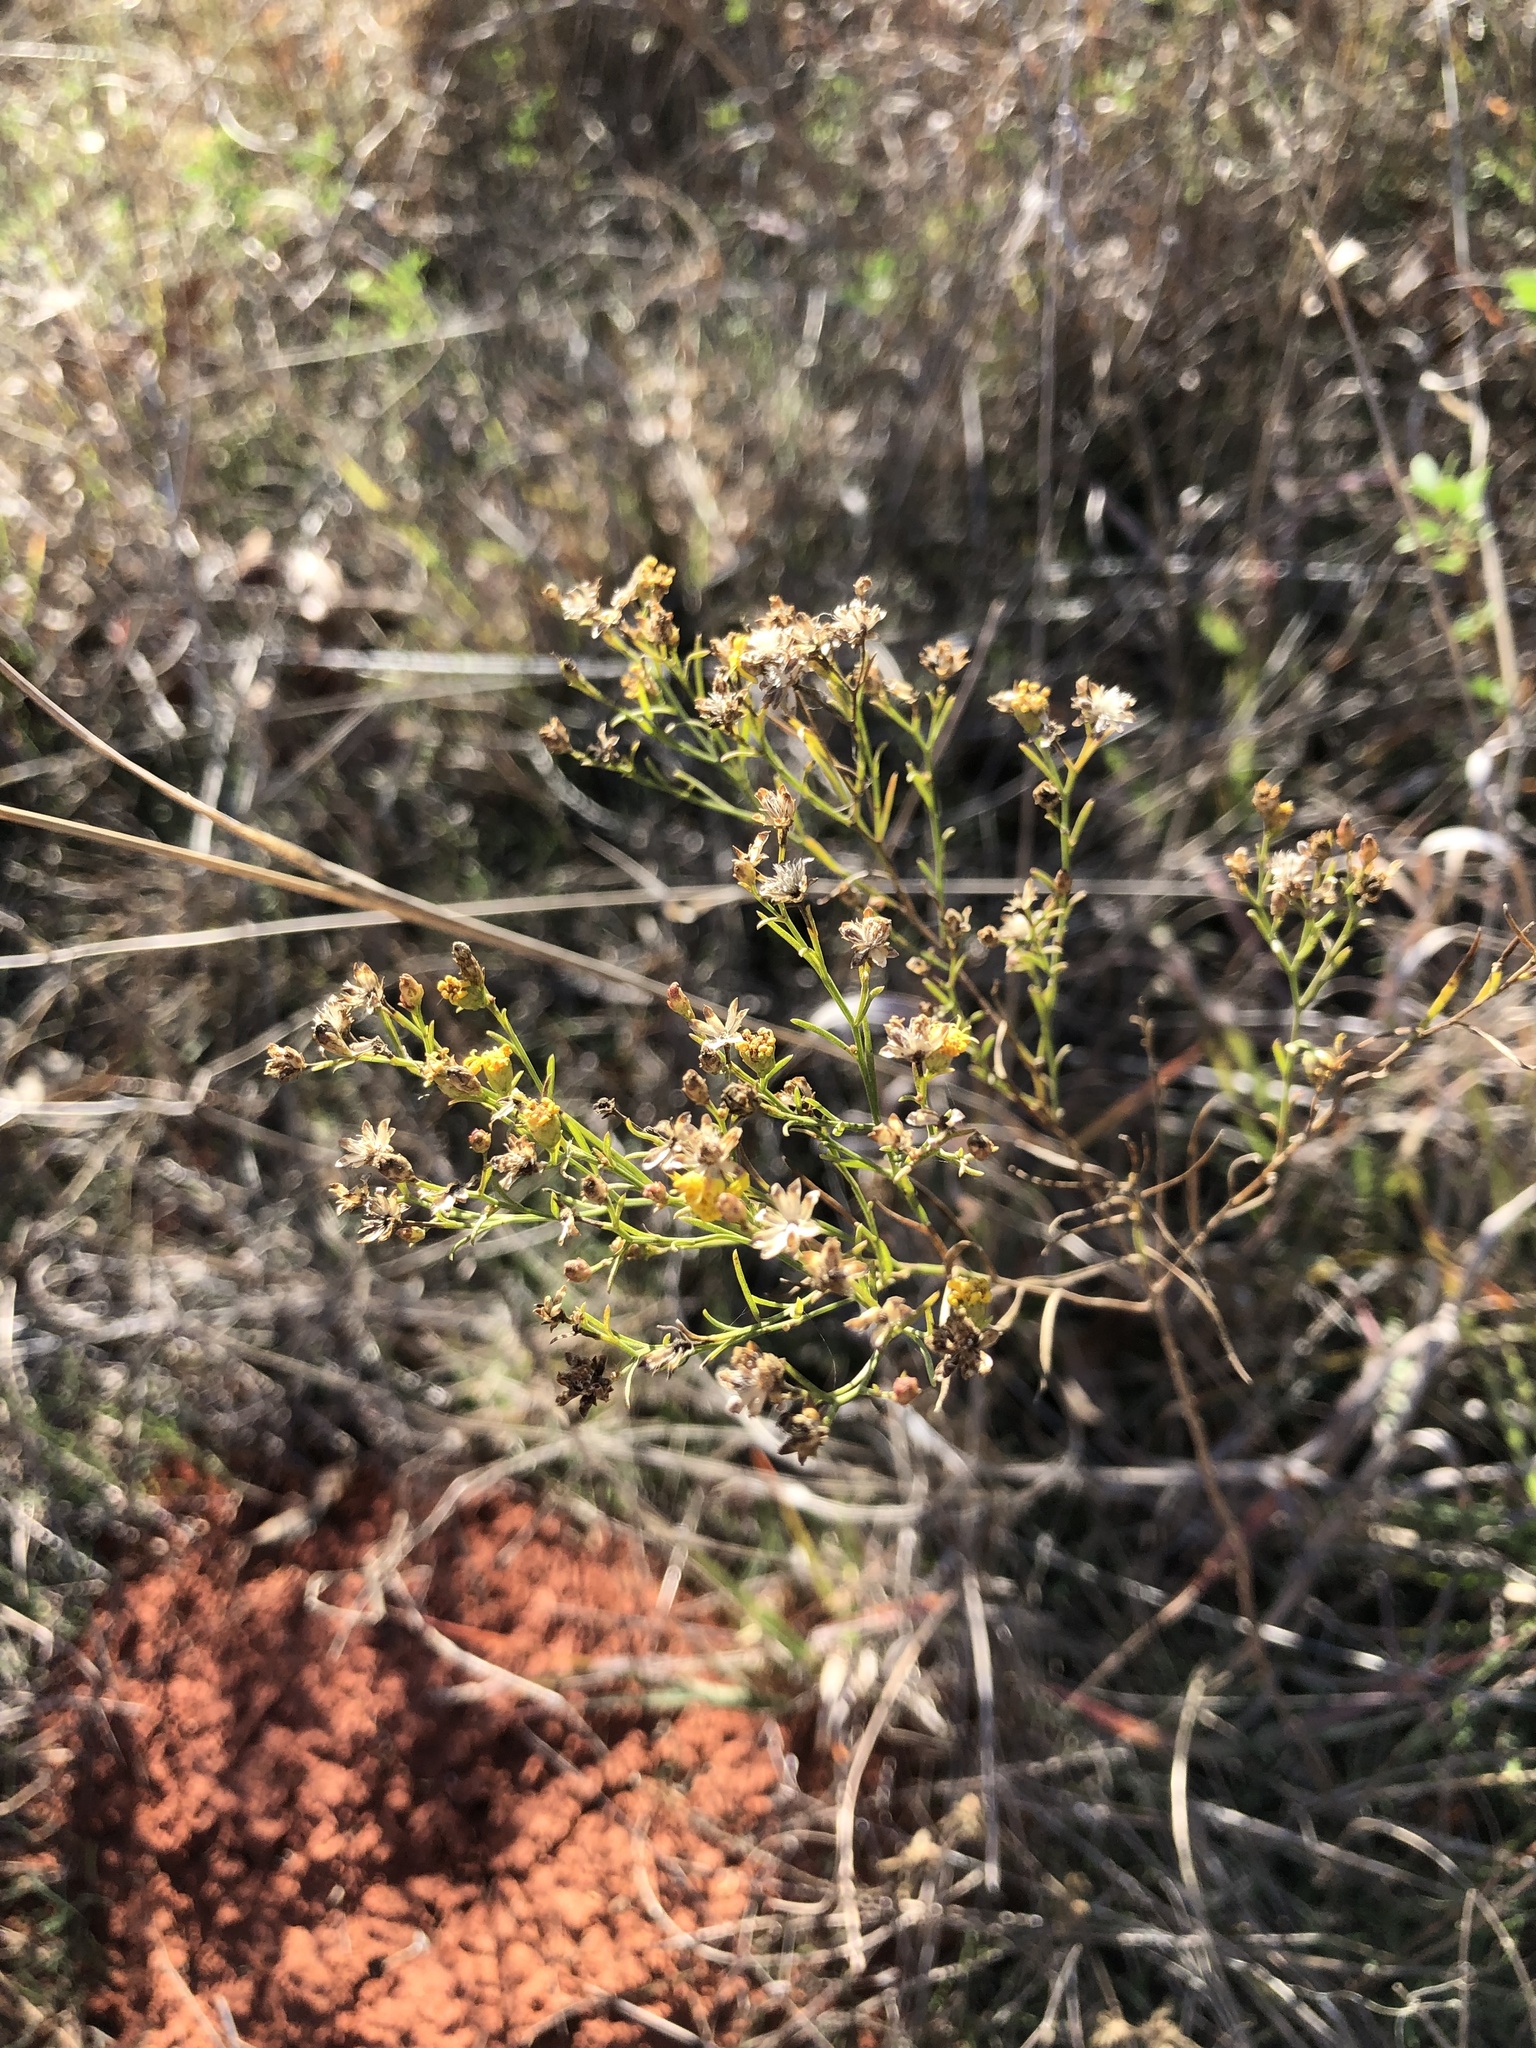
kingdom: Plantae
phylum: Tracheophyta
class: Magnoliopsida
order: Asterales
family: Asteraceae
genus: Amphiachyris
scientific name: Amphiachyris dracunculoides
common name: Broomweed
